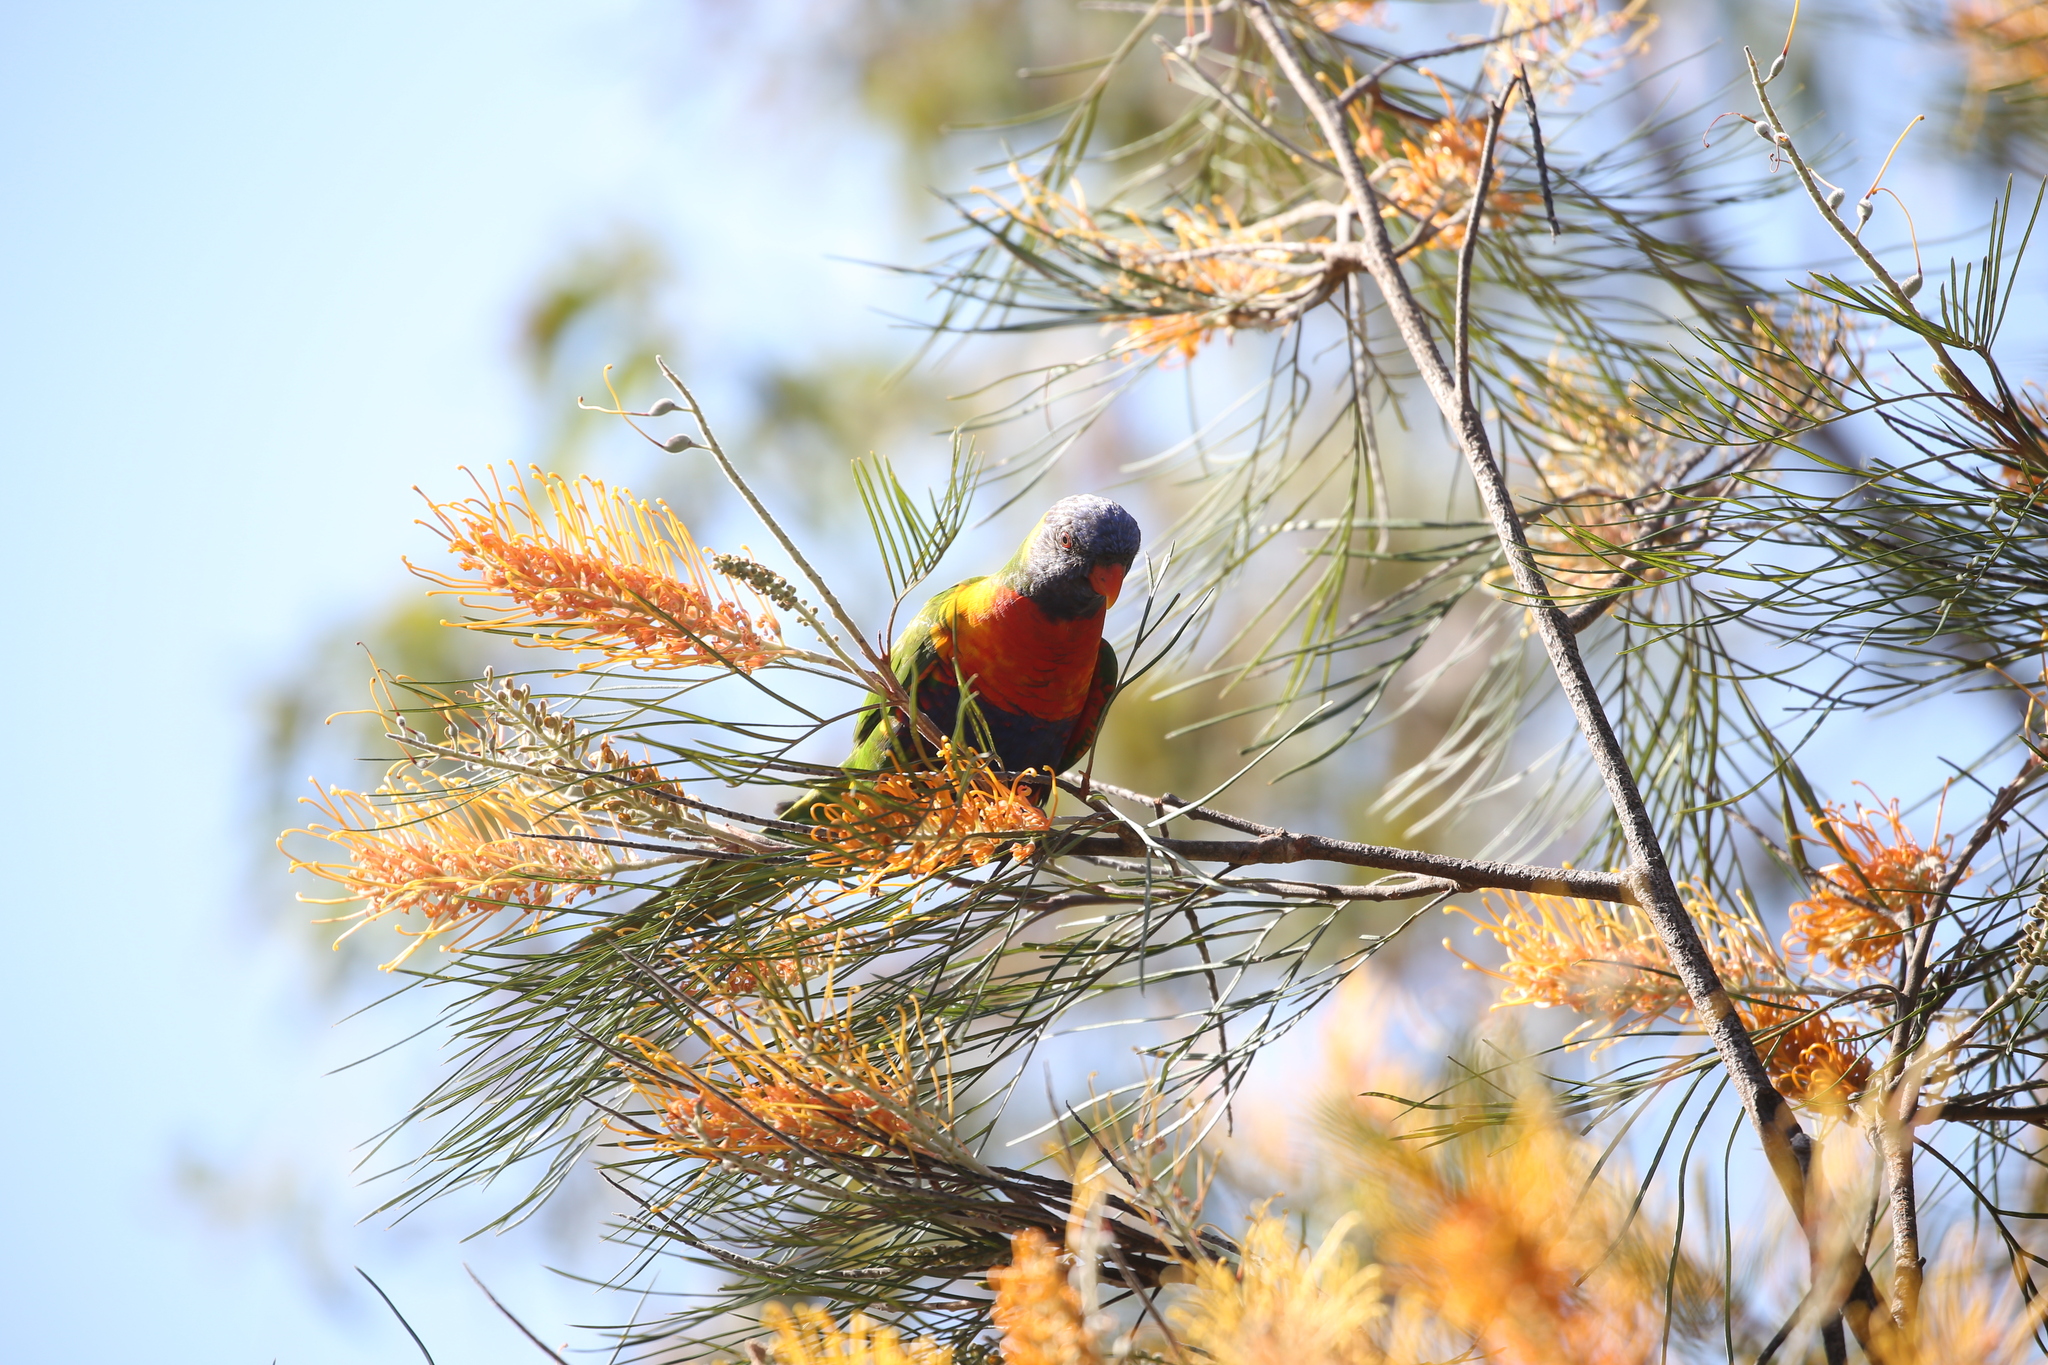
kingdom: Animalia
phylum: Chordata
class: Aves
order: Psittaciformes
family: Psittacidae
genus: Trichoglossus
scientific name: Trichoglossus haematodus
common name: Coconut lorikeet
